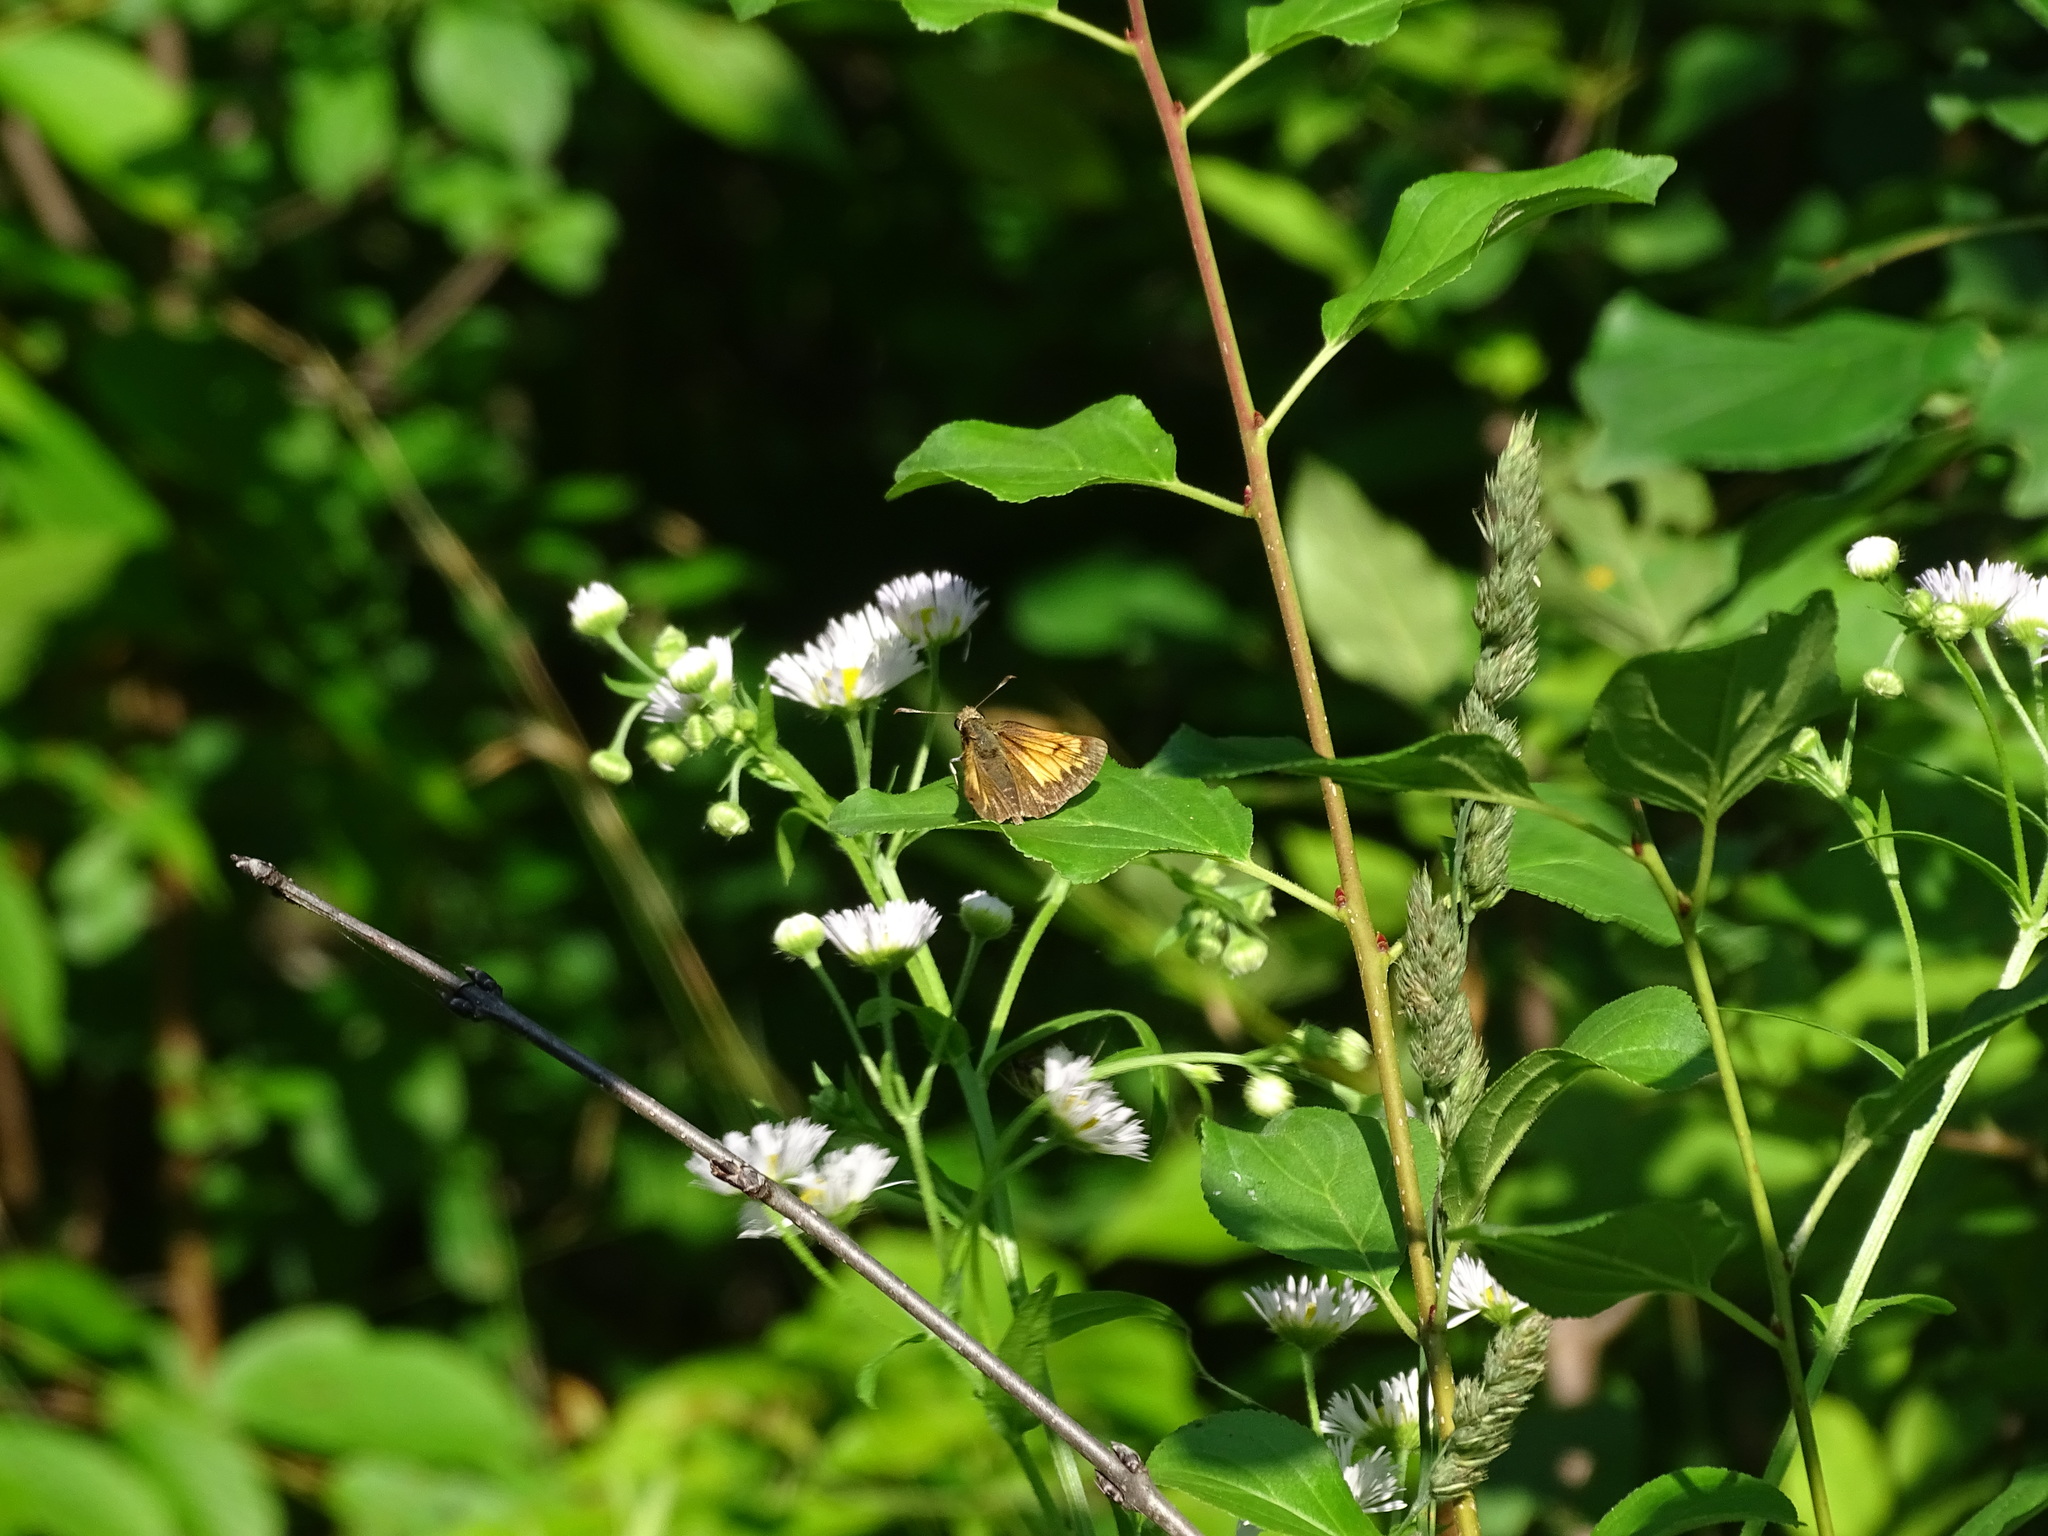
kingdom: Animalia
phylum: Arthropoda
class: Insecta
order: Lepidoptera
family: Hesperiidae
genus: Lon
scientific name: Lon hobomok
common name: Hobomok skipper
